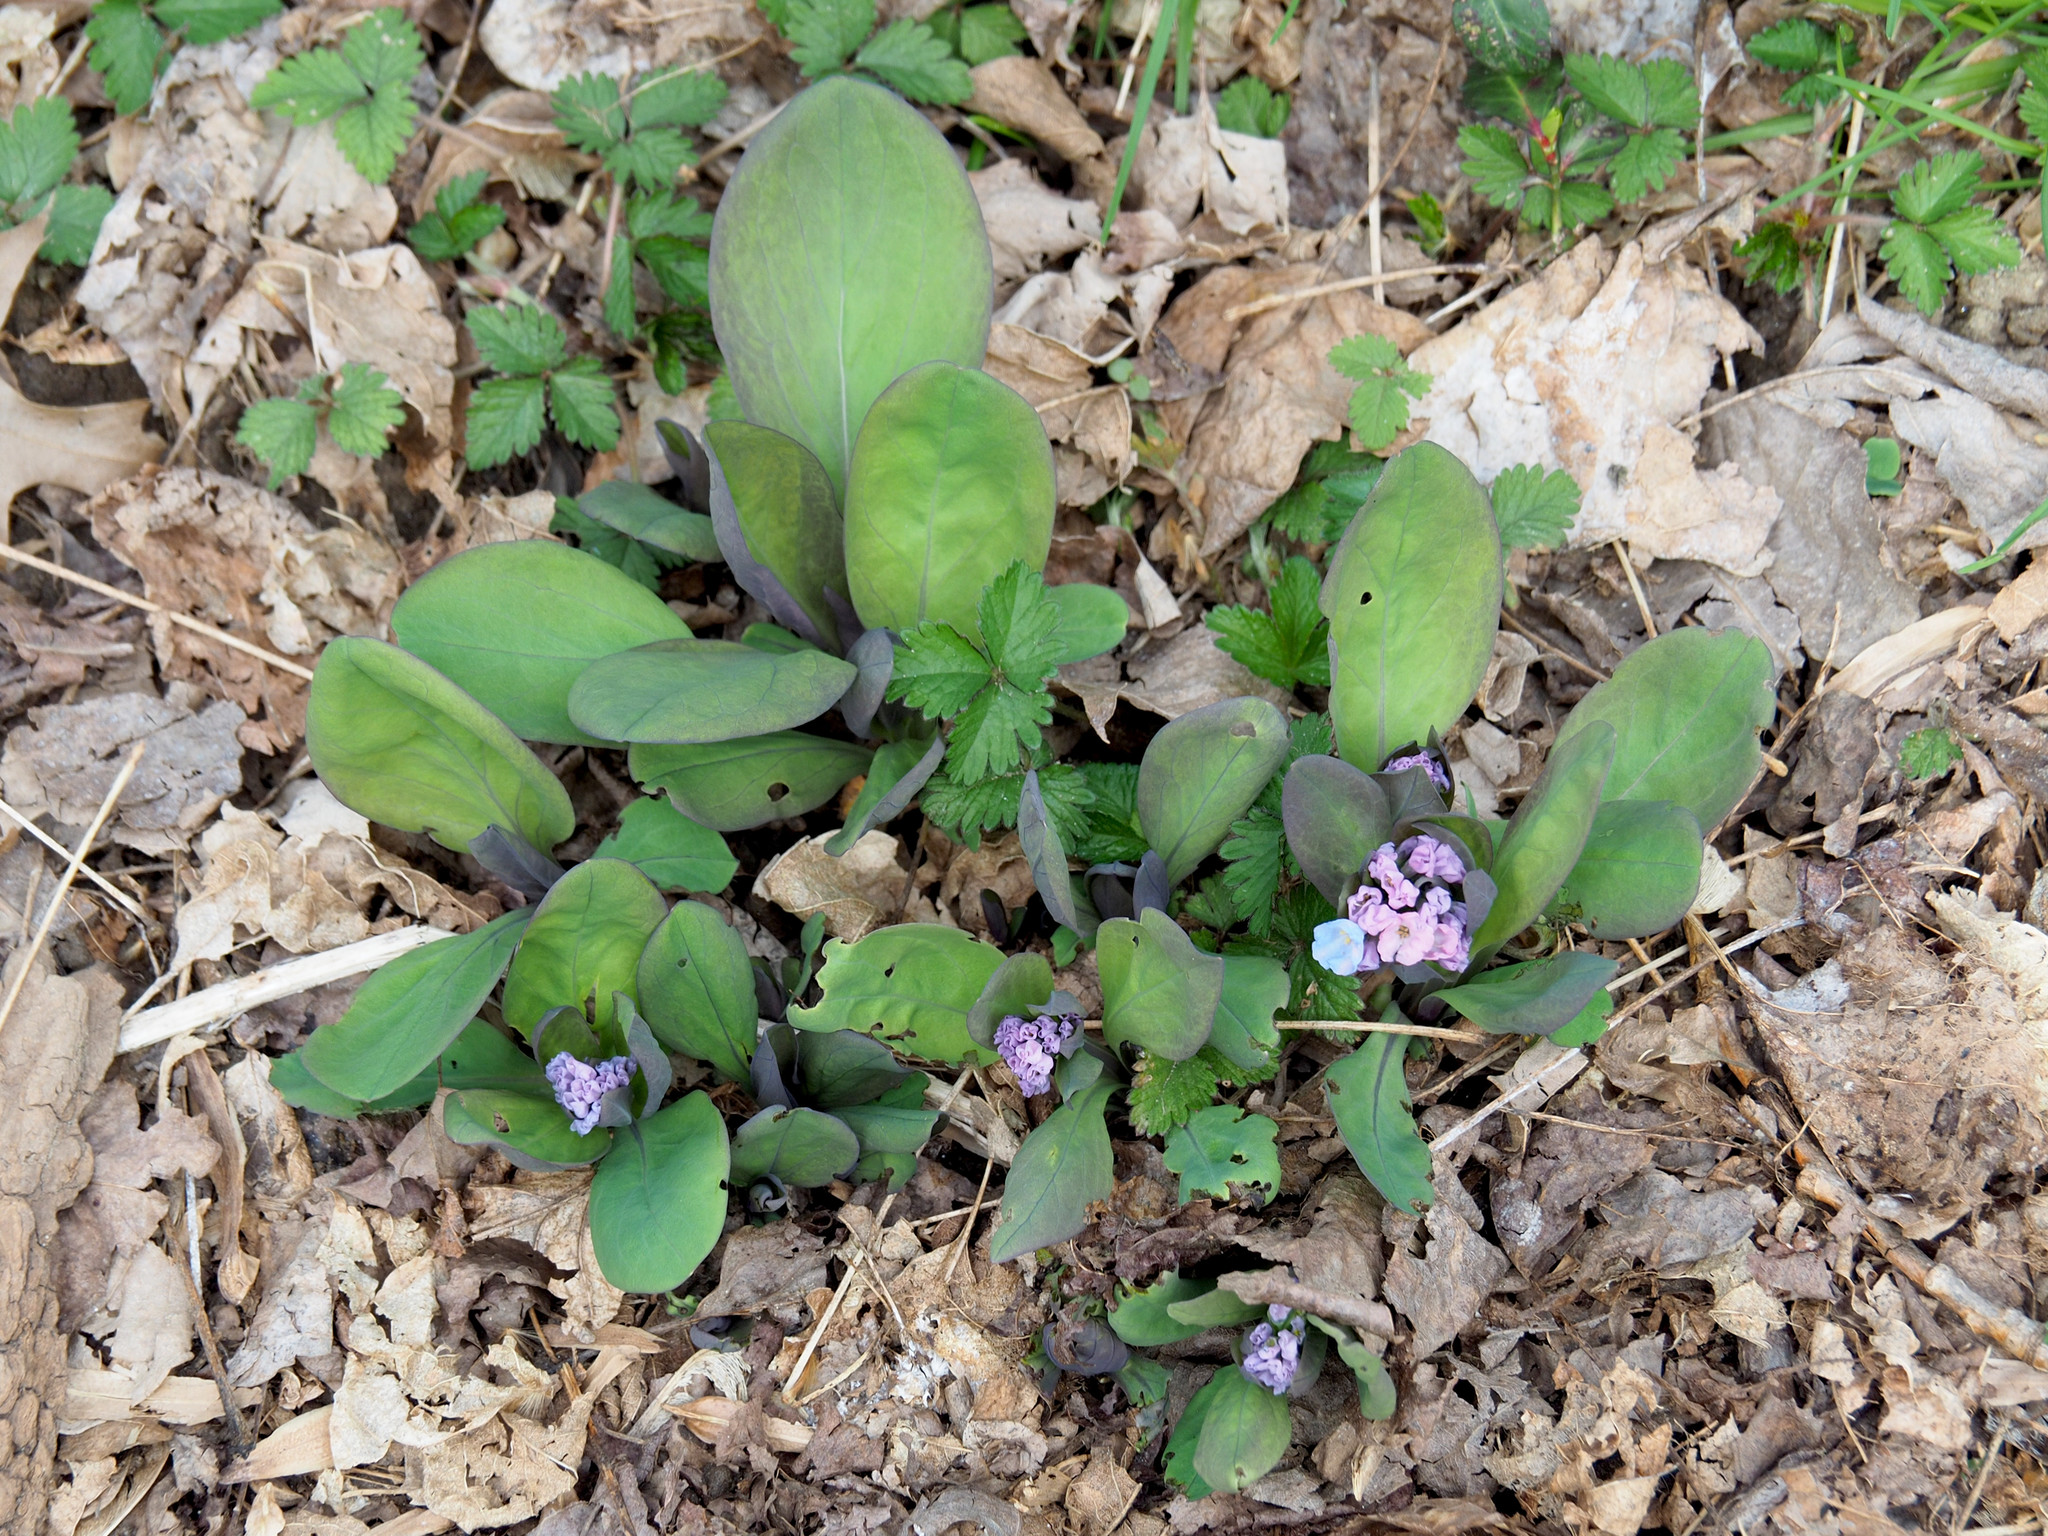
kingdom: Plantae
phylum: Tracheophyta
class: Magnoliopsida
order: Boraginales
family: Boraginaceae
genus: Mertensia
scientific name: Mertensia virginica
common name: Virginia bluebells
